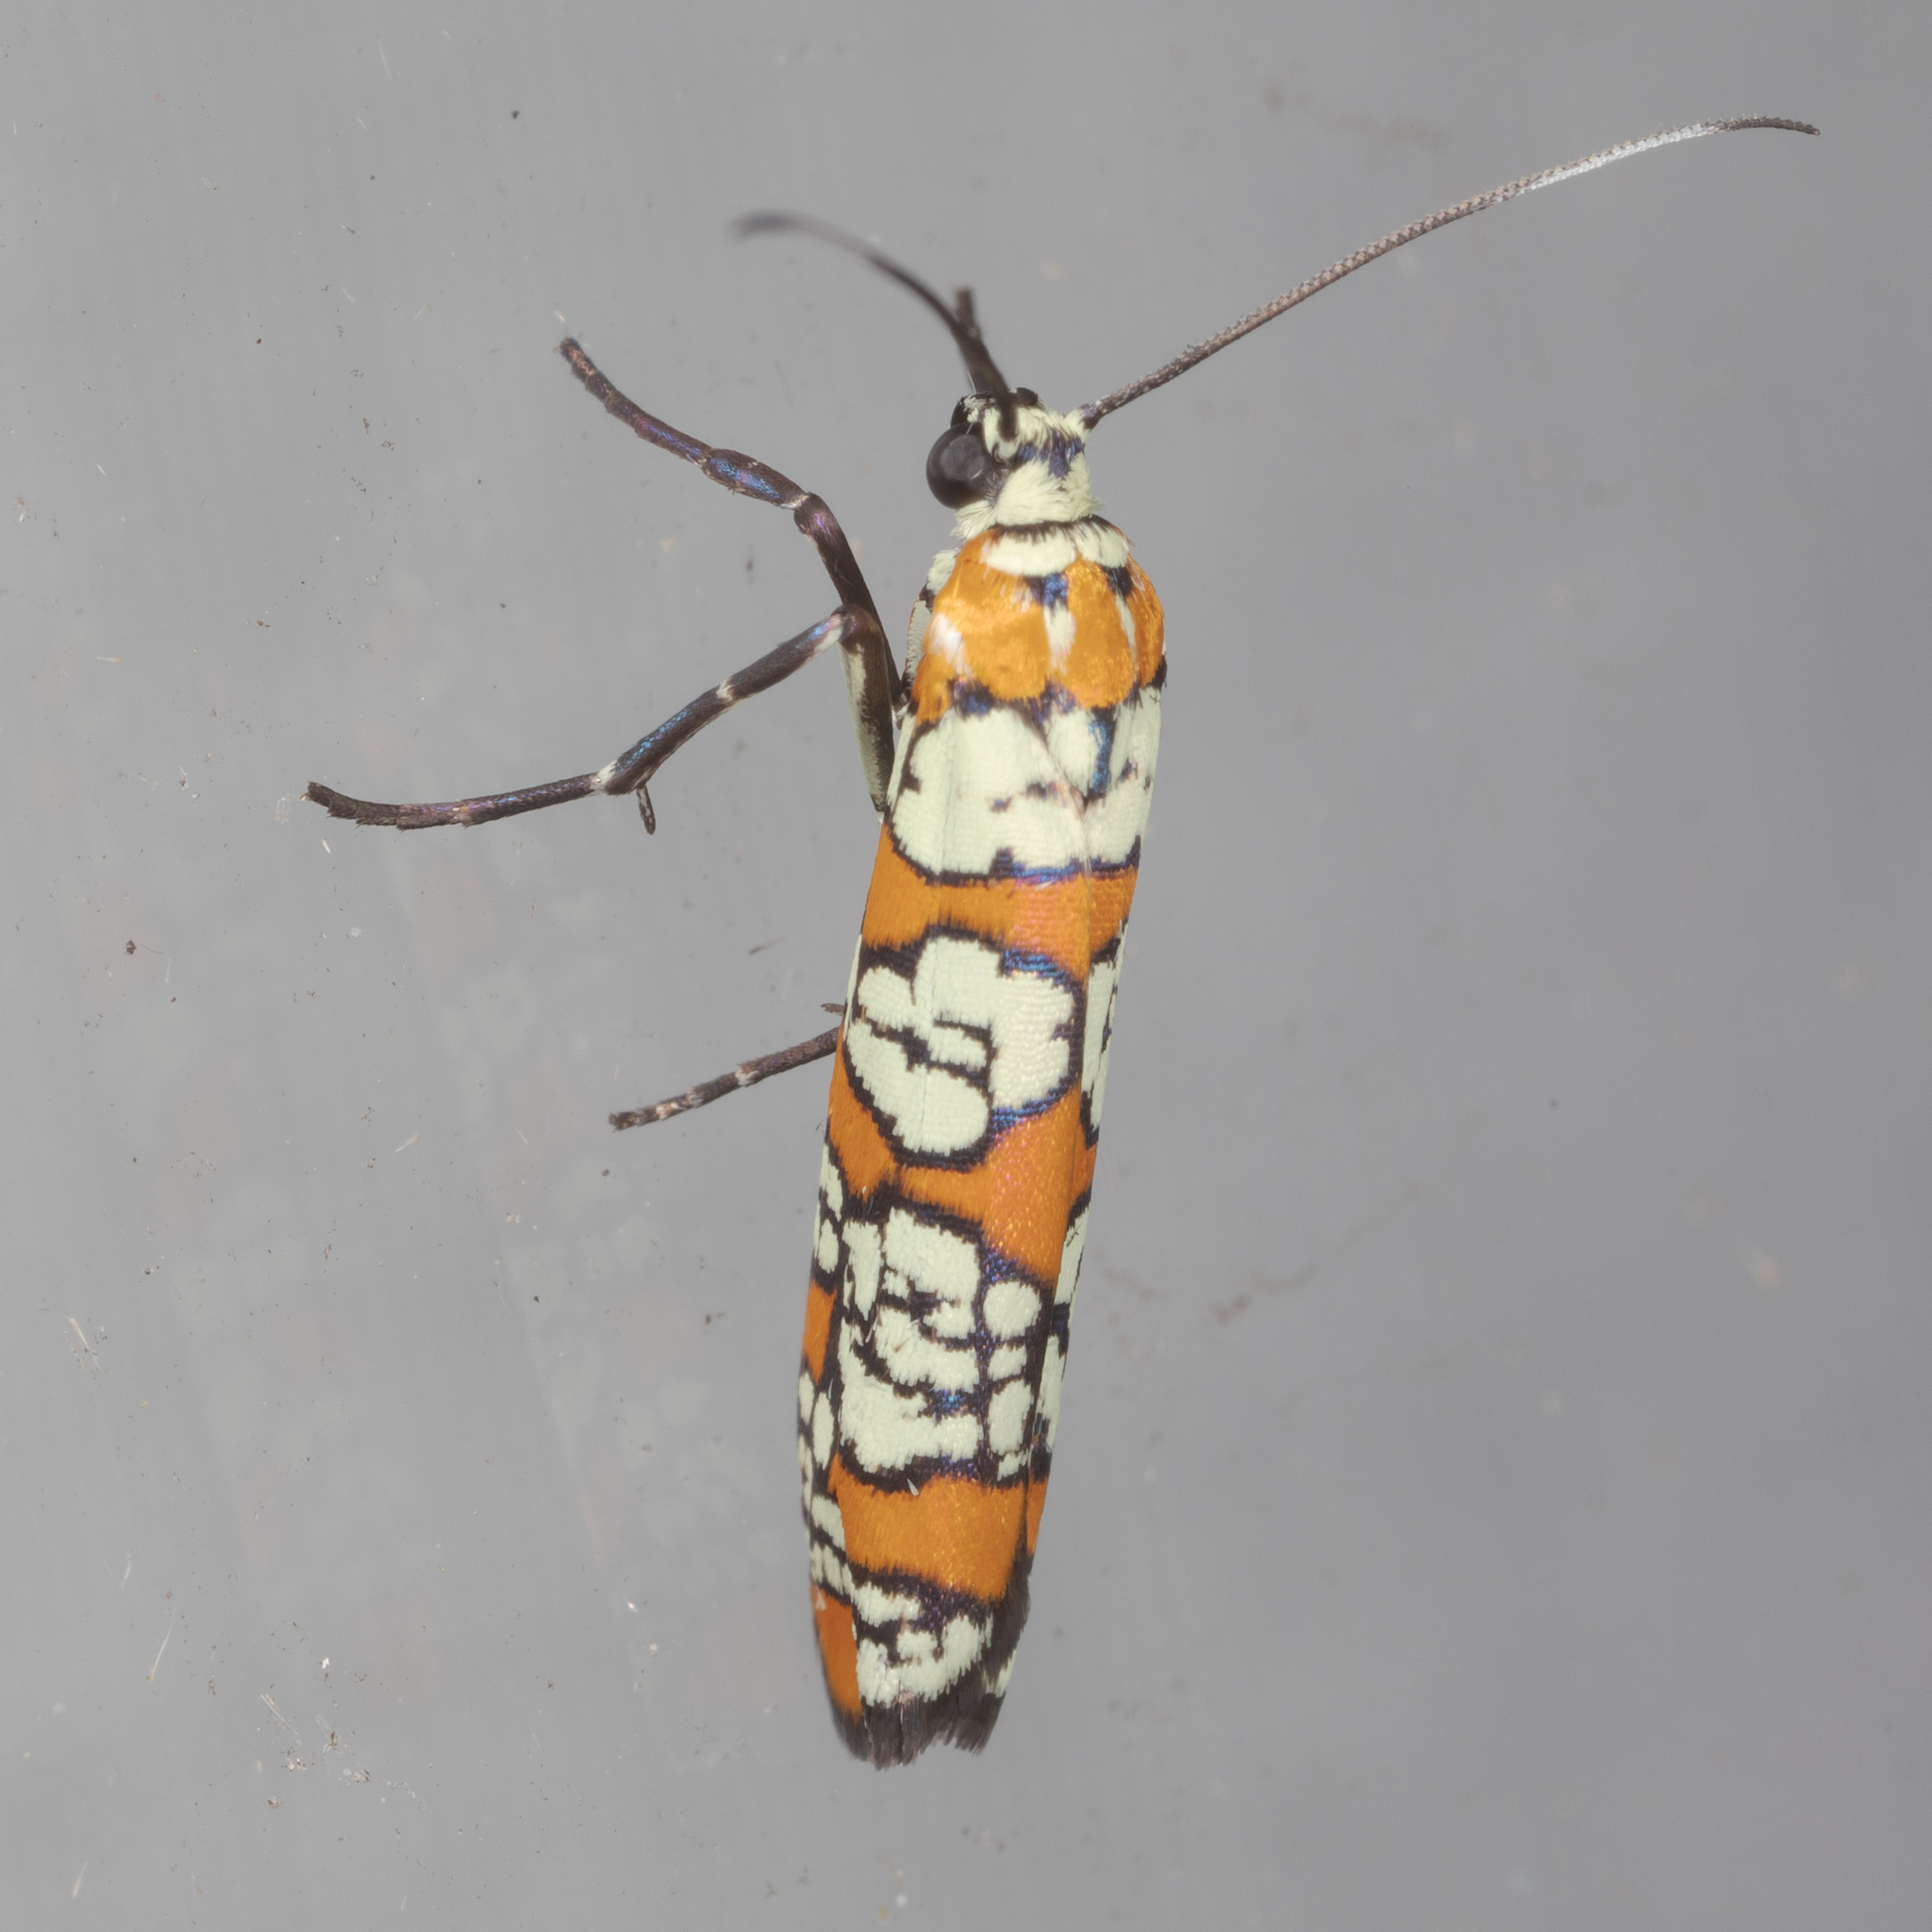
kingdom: Animalia
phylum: Arthropoda
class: Insecta
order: Lepidoptera
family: Attevidae
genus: Atteva
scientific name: Atteva punctella
